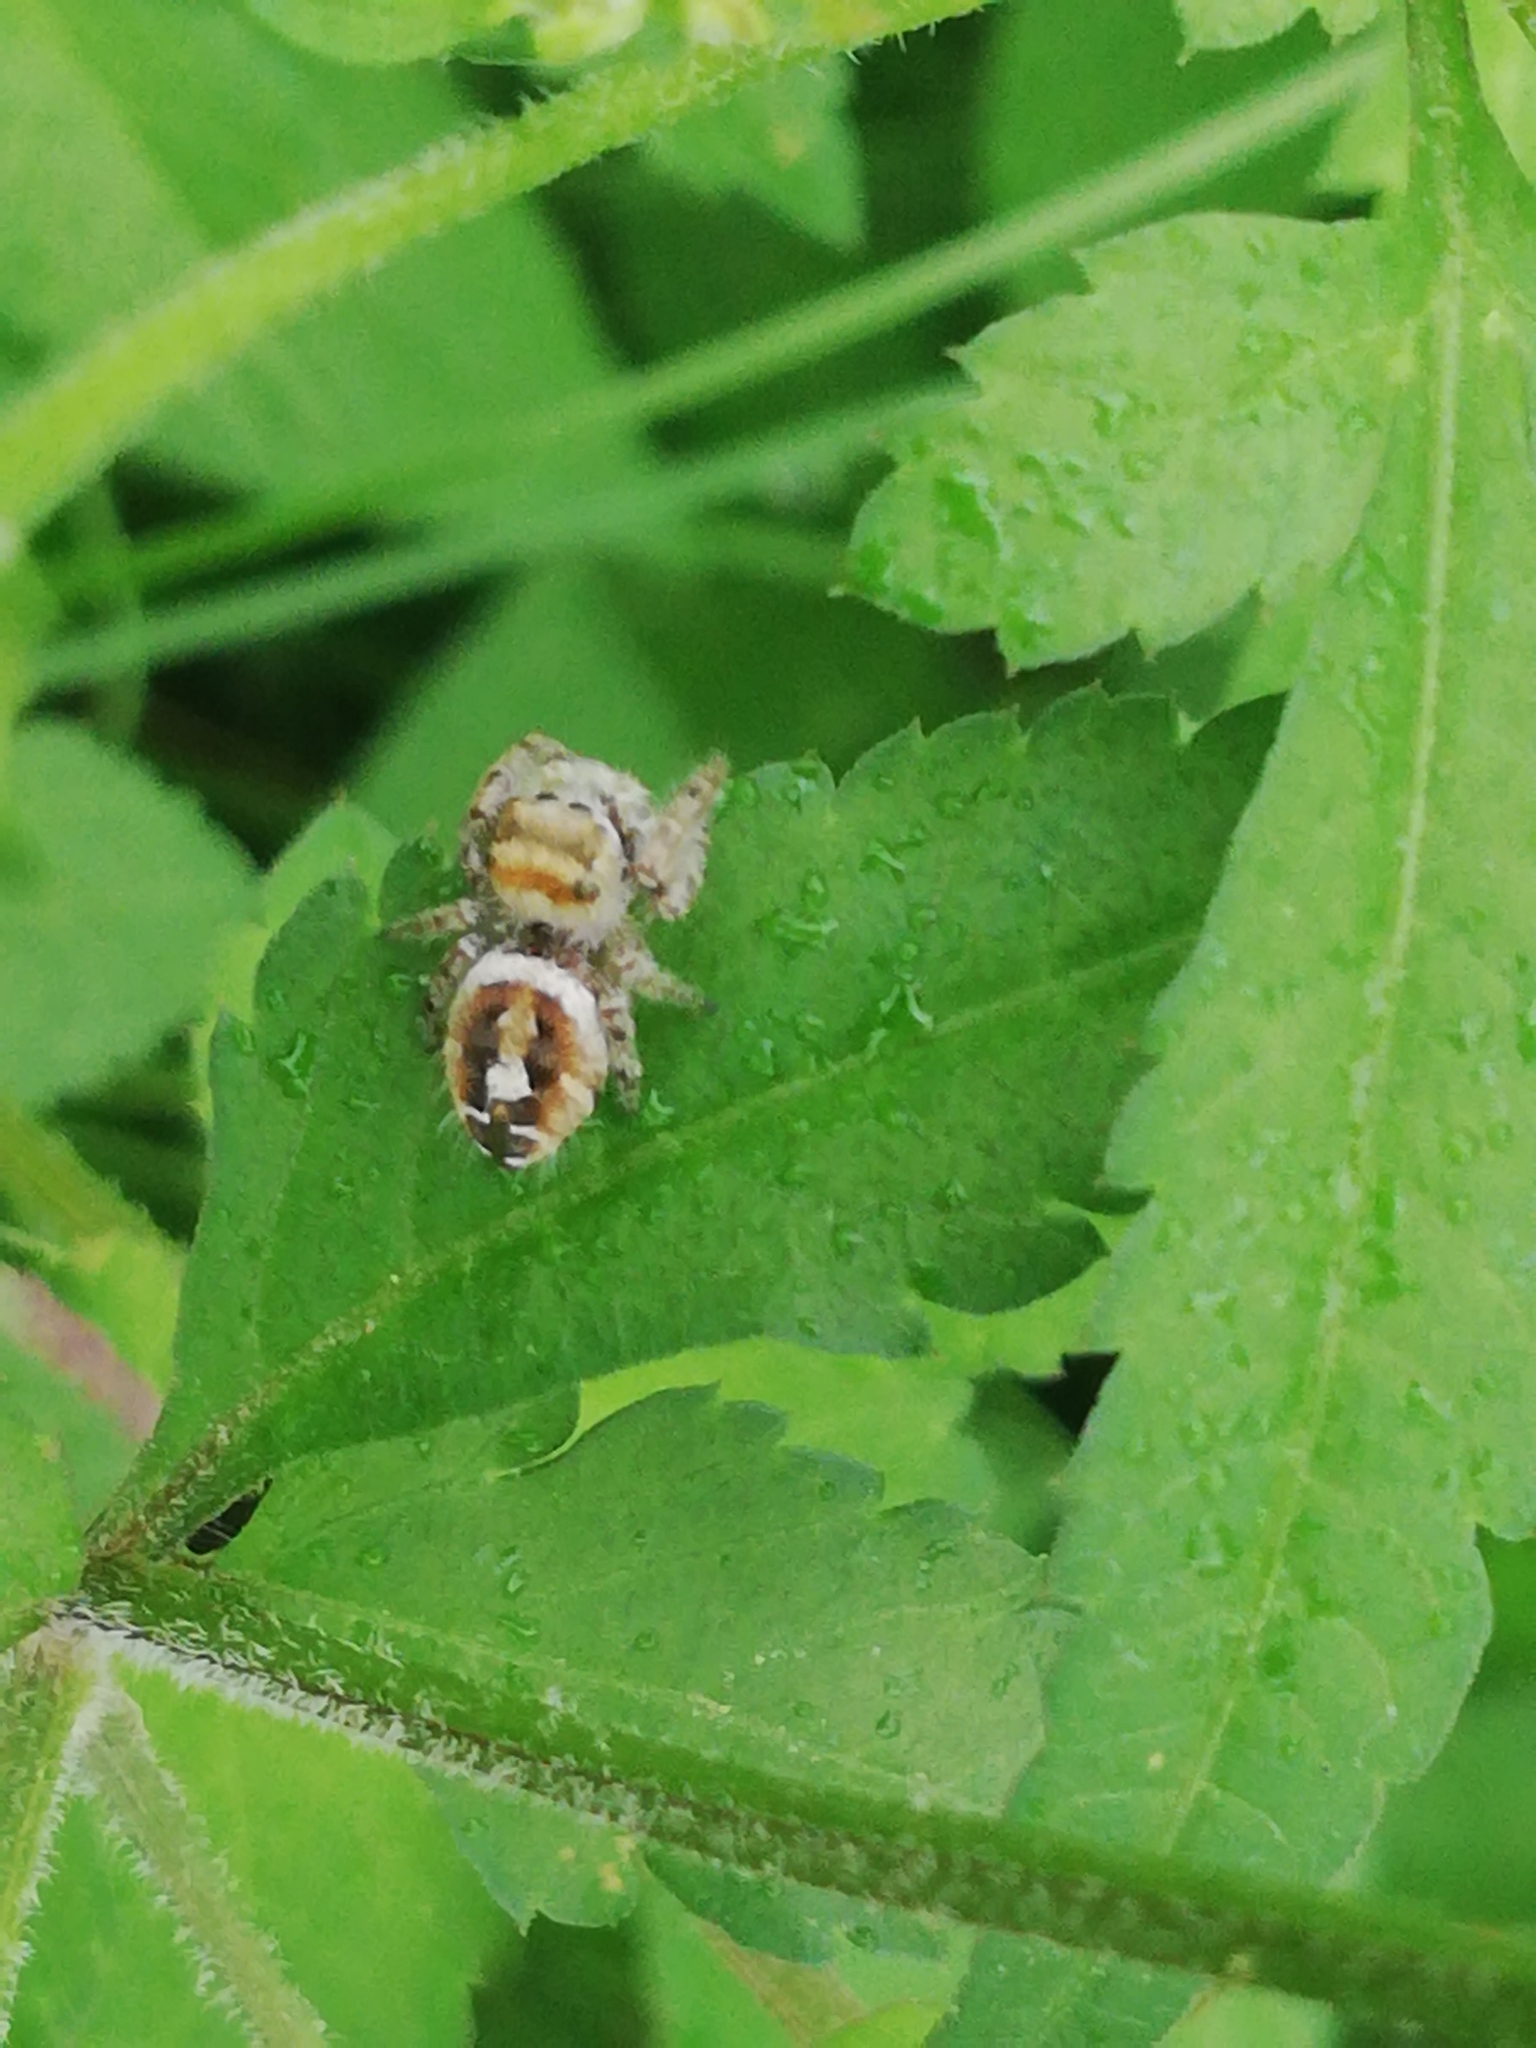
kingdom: Animalia
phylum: Arthropoda
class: Arachnida
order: Araneae
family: Salticidae
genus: Phidippus
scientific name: Phidippus arizonensis
